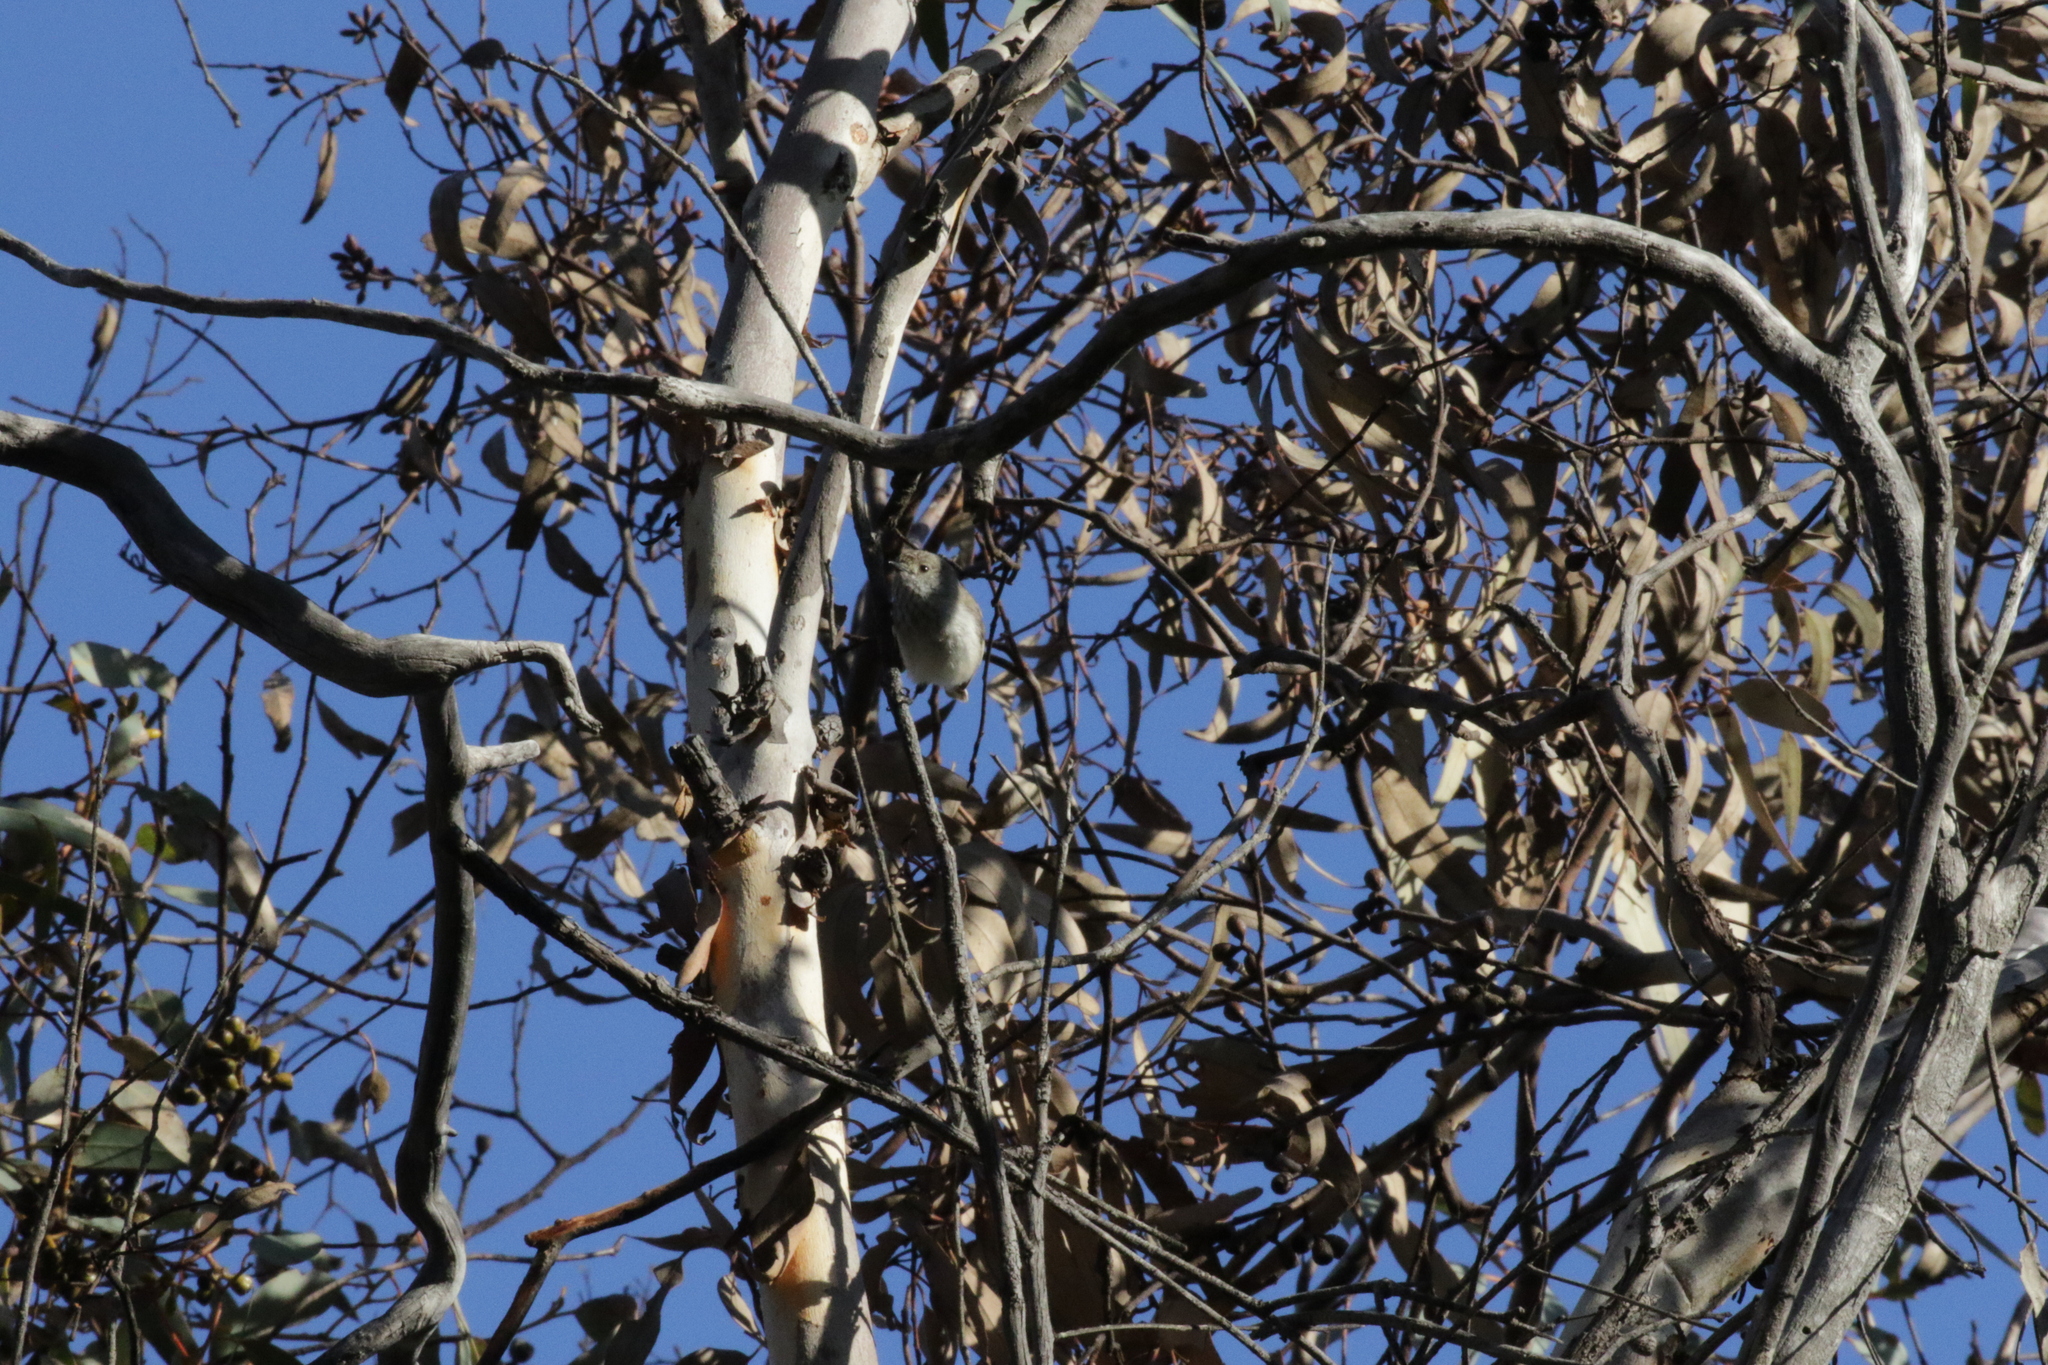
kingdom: Animalia
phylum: Chordata
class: Aves
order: Passeriformes
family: Acanthizidae
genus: Acanthiza
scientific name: Acanthiza apicalis
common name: Inland thornbill
